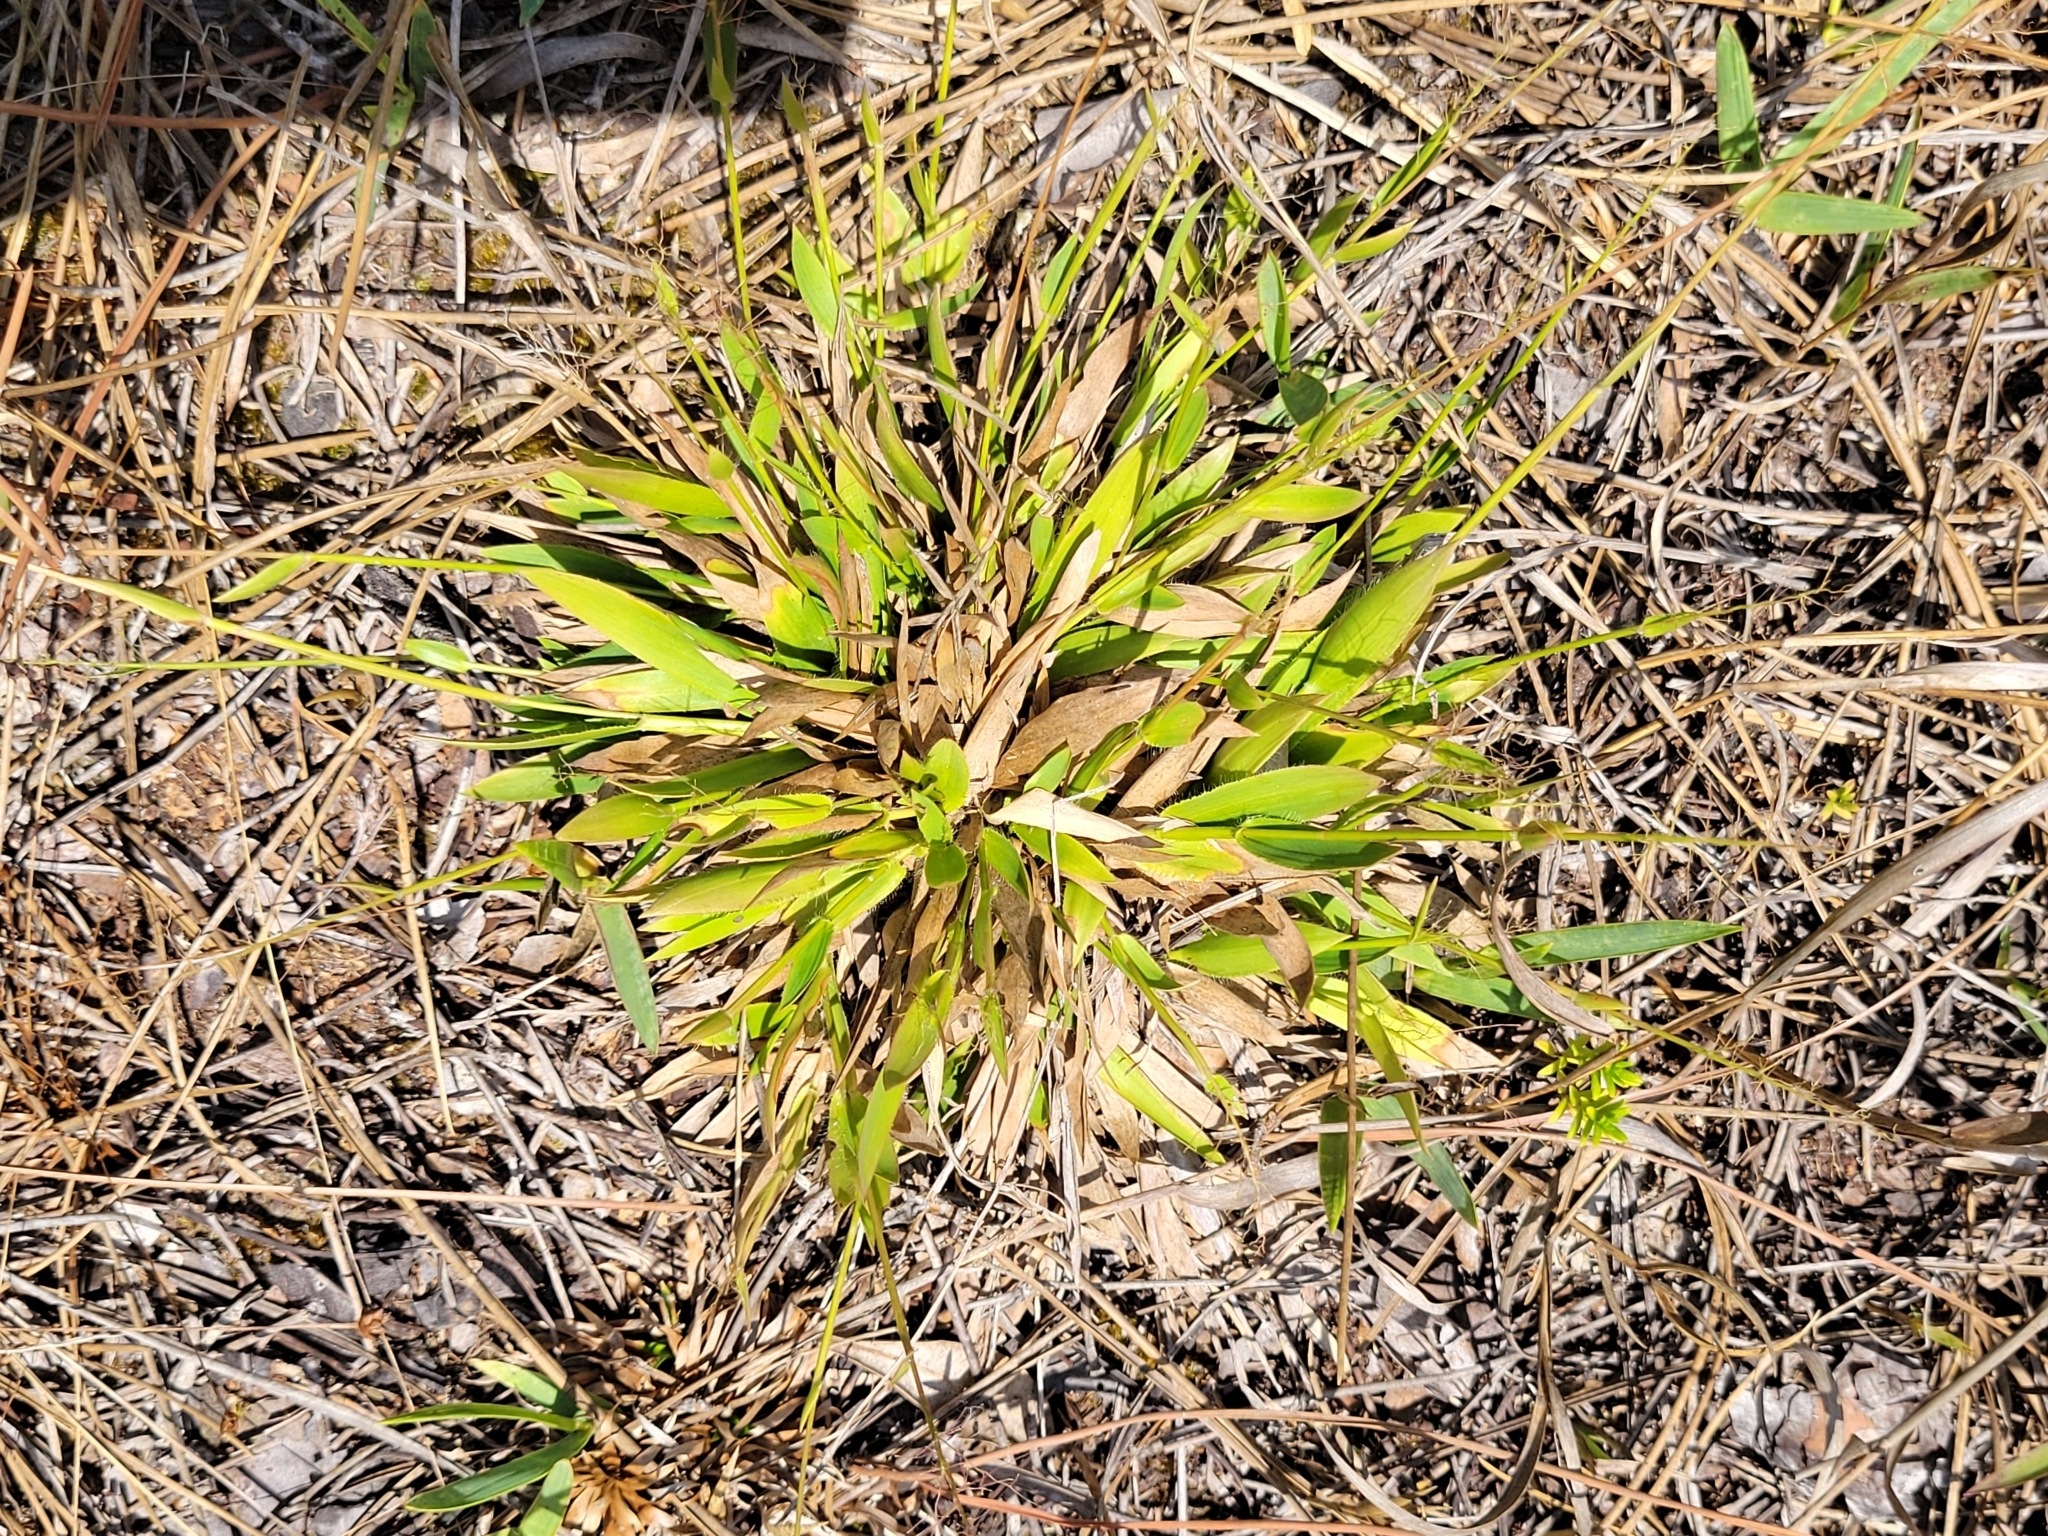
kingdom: Plantae
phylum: Tracheophyta
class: Liliopsida
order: Poales
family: Poaceae
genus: Dichanthelium
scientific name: Dichanthelium strigosum
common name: Cushion-tuft panic grass
